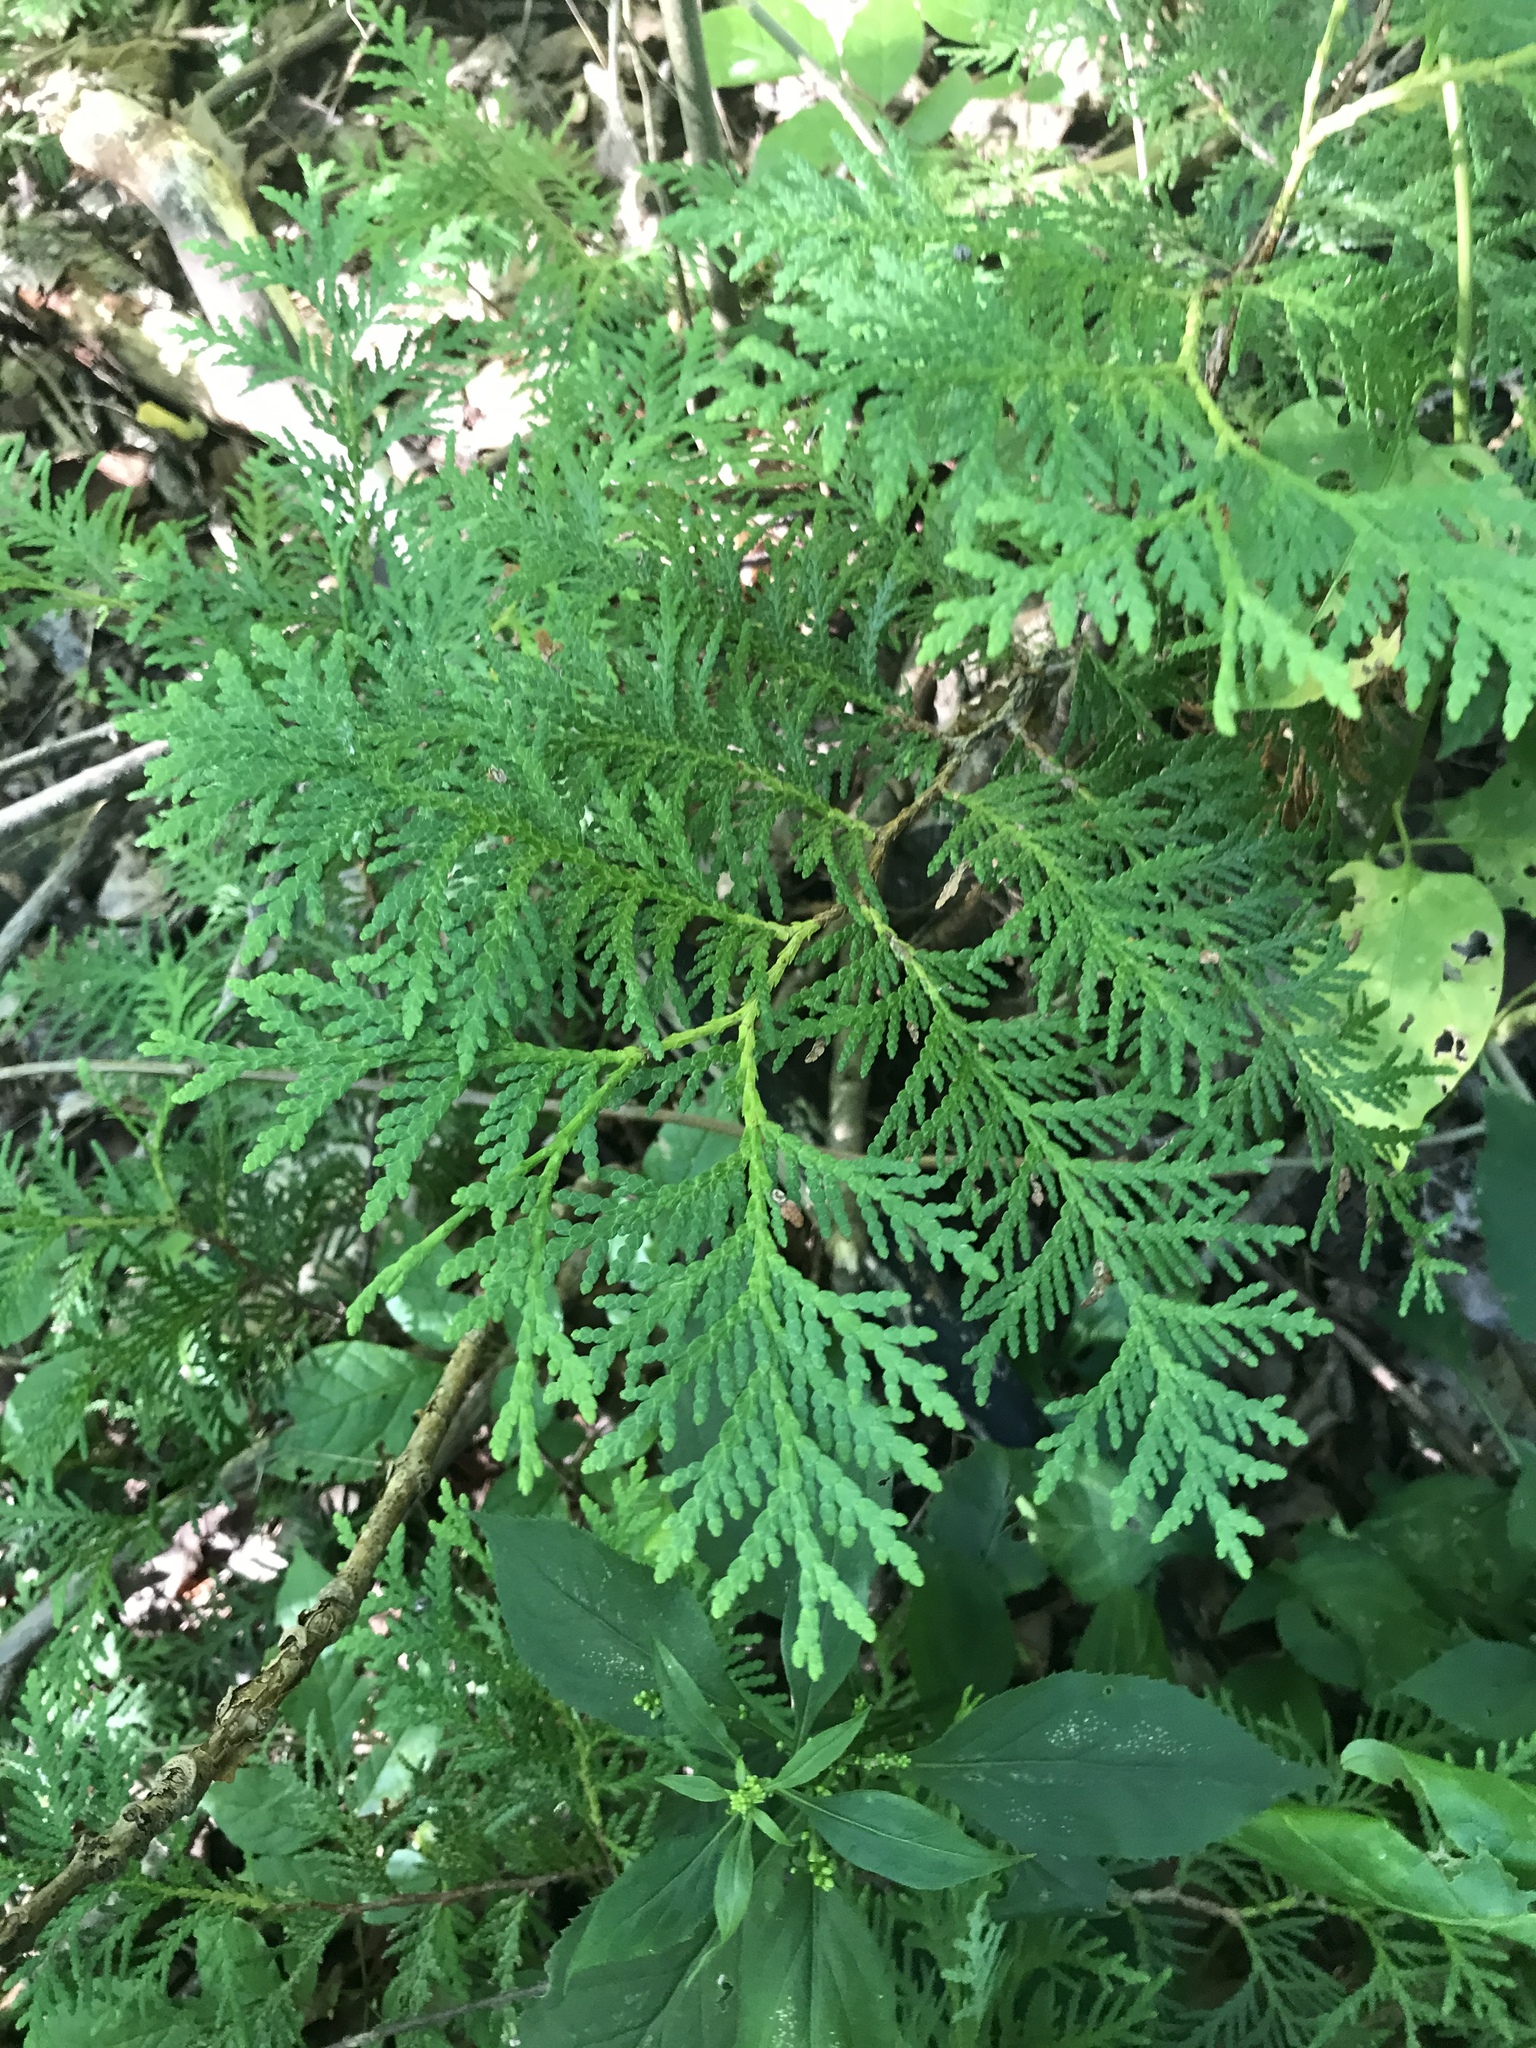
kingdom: Plantae
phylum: Tracheophyta
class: Pinopsida
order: Pinales
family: Cupressaceae
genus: Thuja
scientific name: Thuja occidentalis
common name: Northern white-cedar
